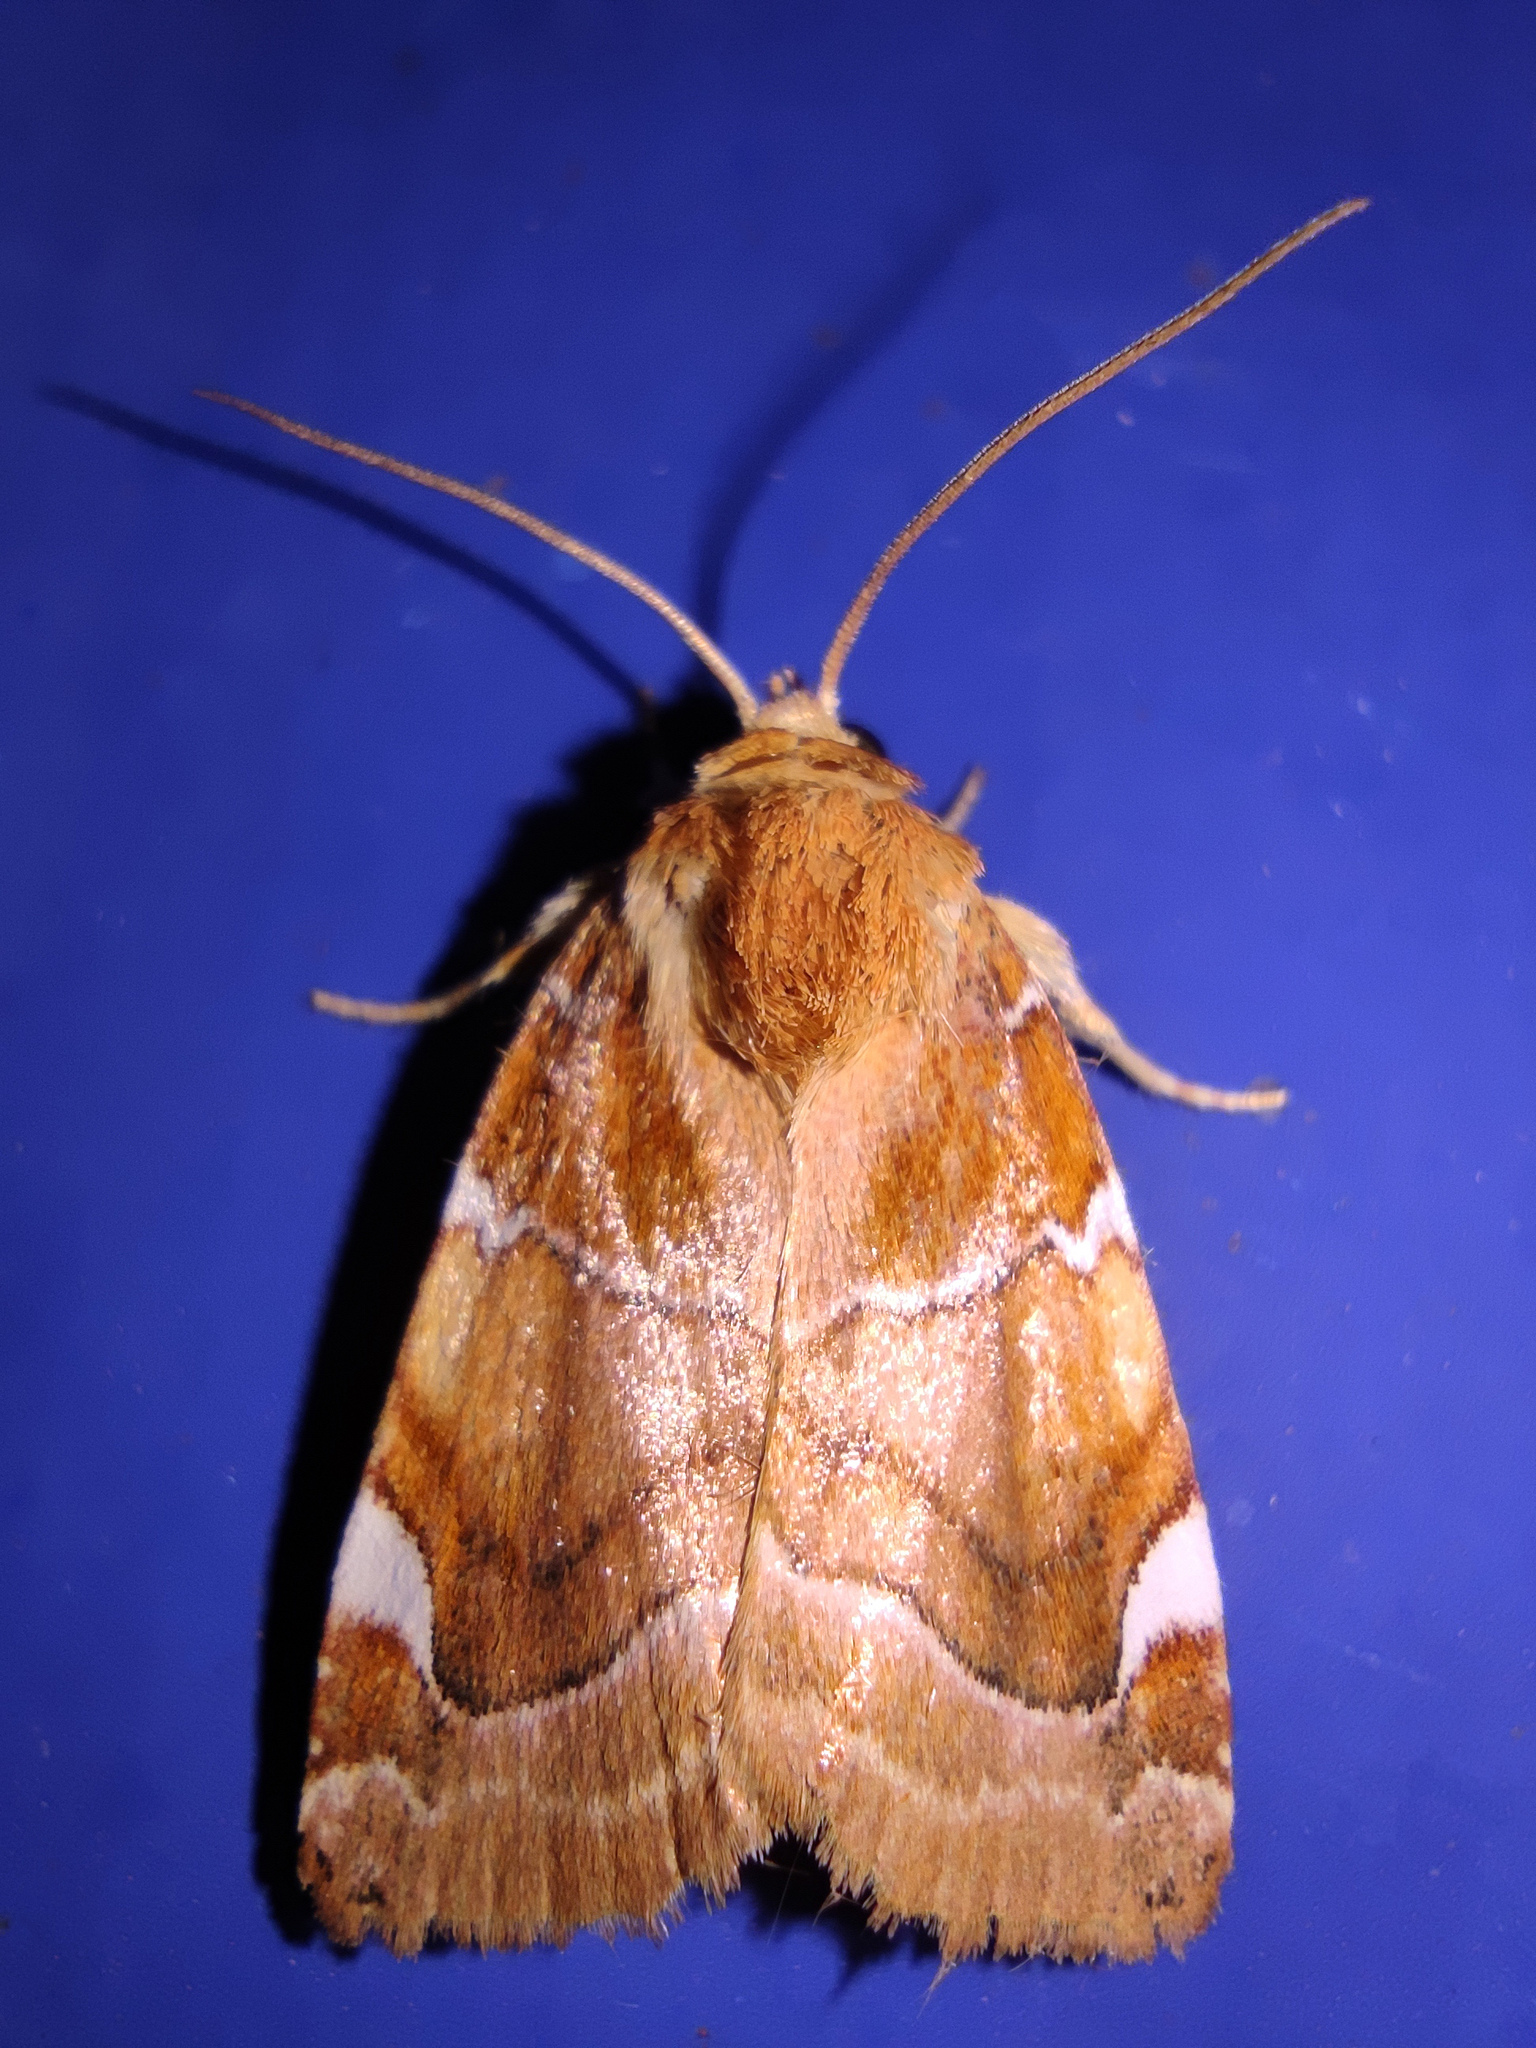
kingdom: Animalia
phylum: Arthropoda
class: Insecta
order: Lepidoptera
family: Noctuidae
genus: Cosmia
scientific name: Cosmia diffinis
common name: White-spotted pinion
